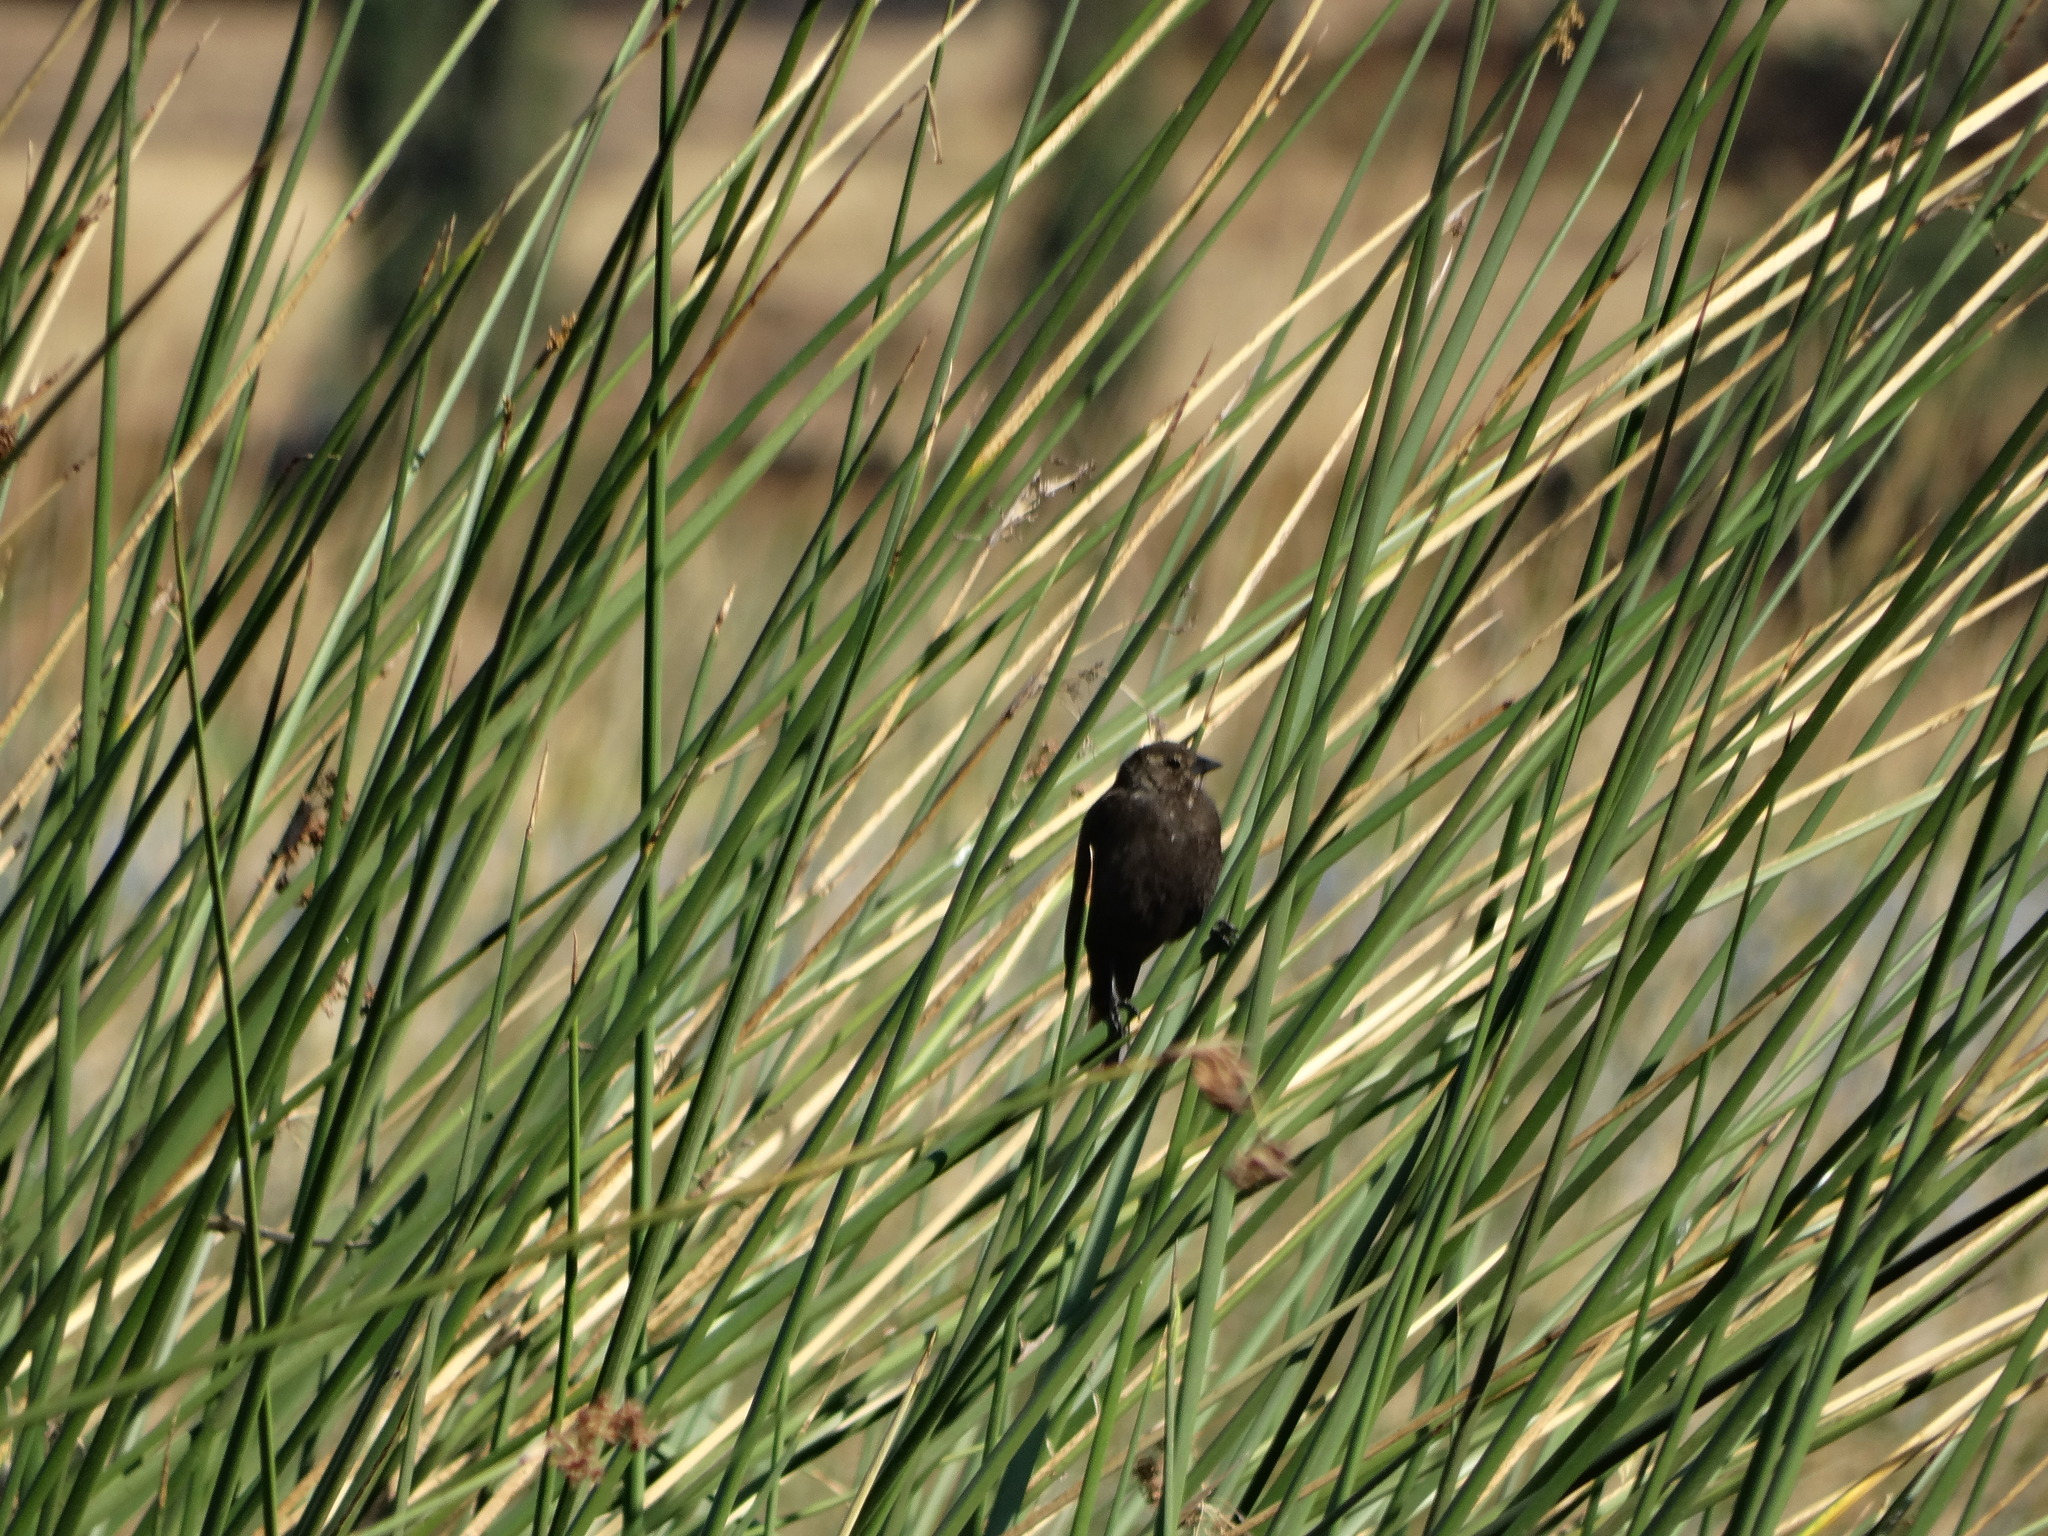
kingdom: Animalia
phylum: Chordata
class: Aves
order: Passeriformes
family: Icteridae
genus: Agelaius
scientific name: Agelaius phoeniceus
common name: Red-winged blackbird
